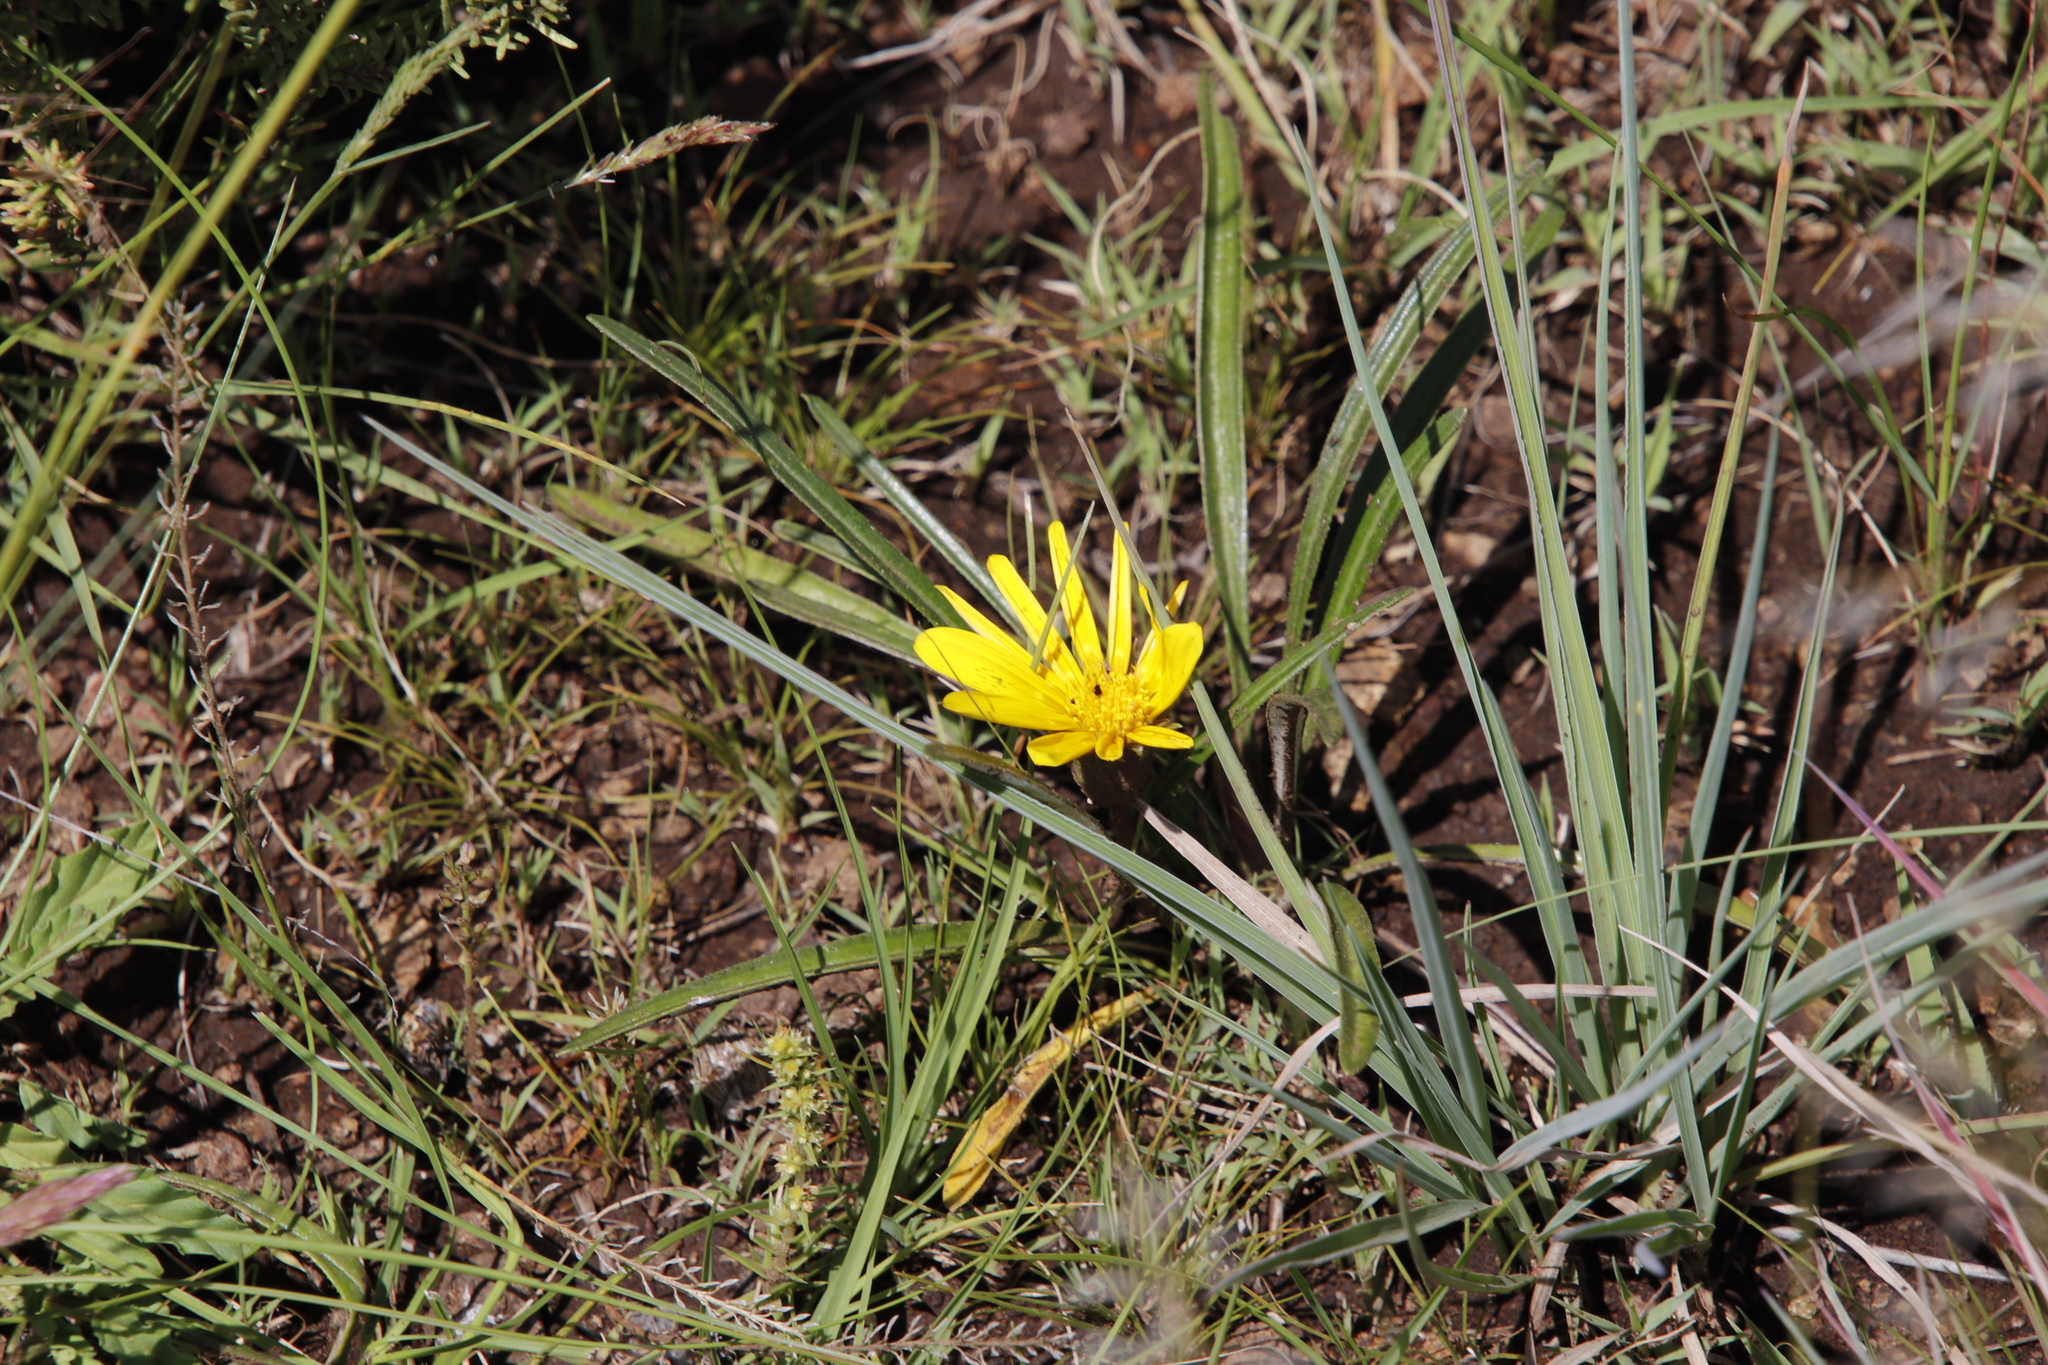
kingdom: Plantae
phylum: Tracheophyta
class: Magnoliopsida
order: Asterales
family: Asteraceae
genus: Gazania
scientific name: Gazania krebsiana
